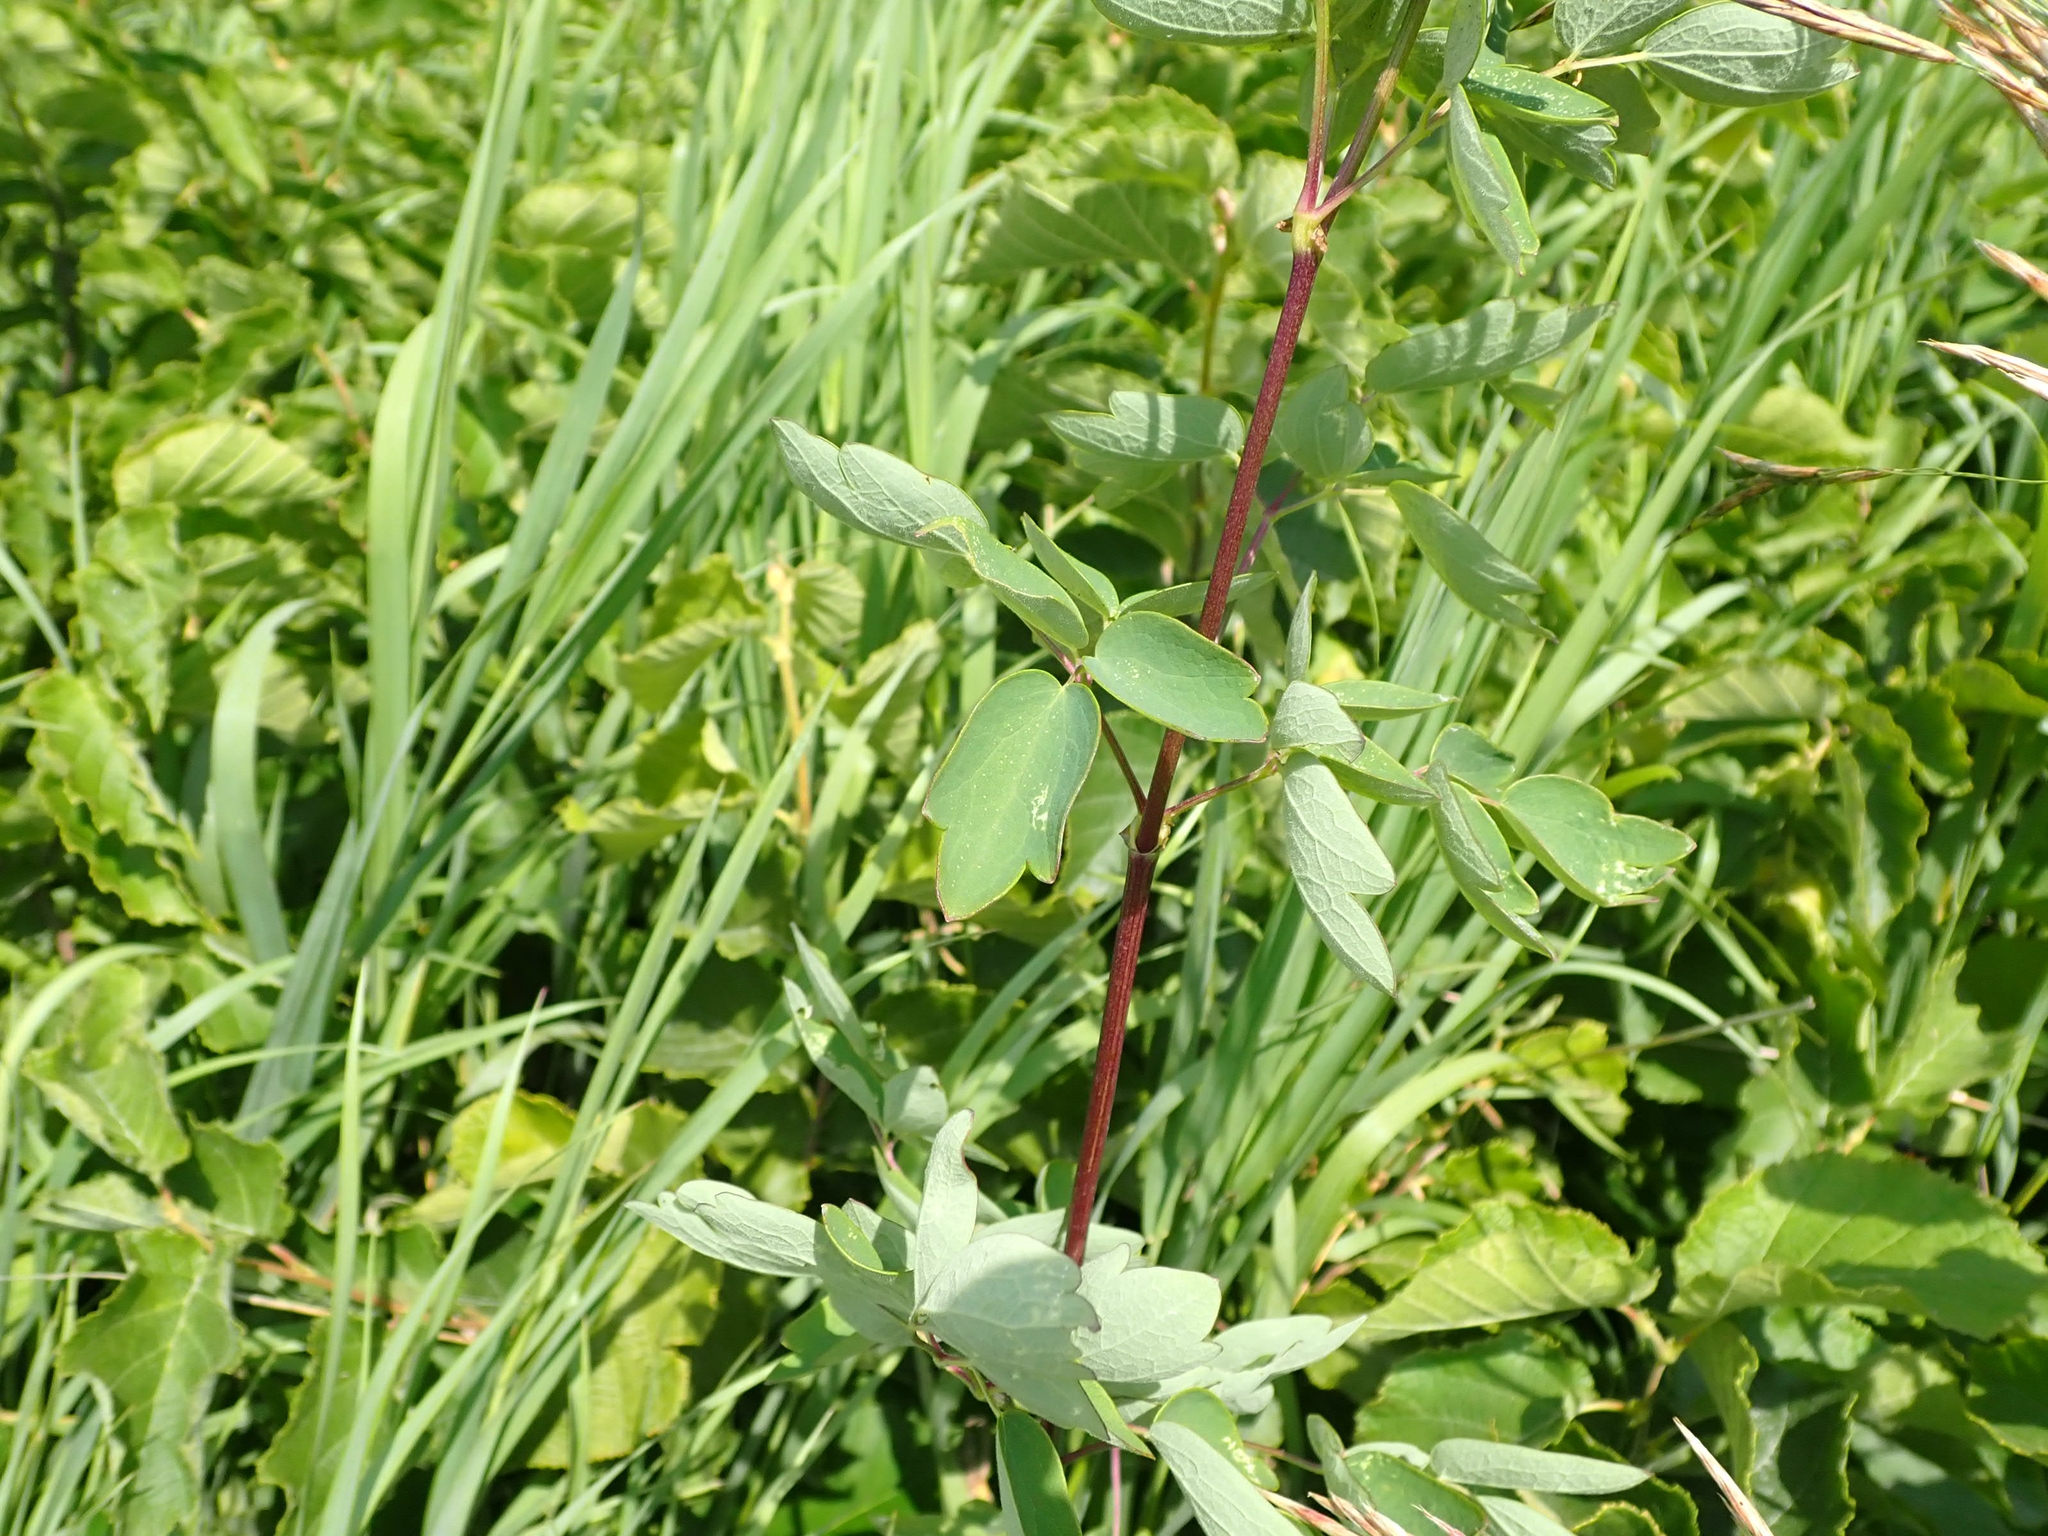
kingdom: Plantae
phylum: Tracheophyta
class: Magnoliopsida
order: Ranunculales
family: Ranunculaceae
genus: Thalictrum
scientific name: Thalictrum dasycarpum
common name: Purple meadow-rue
